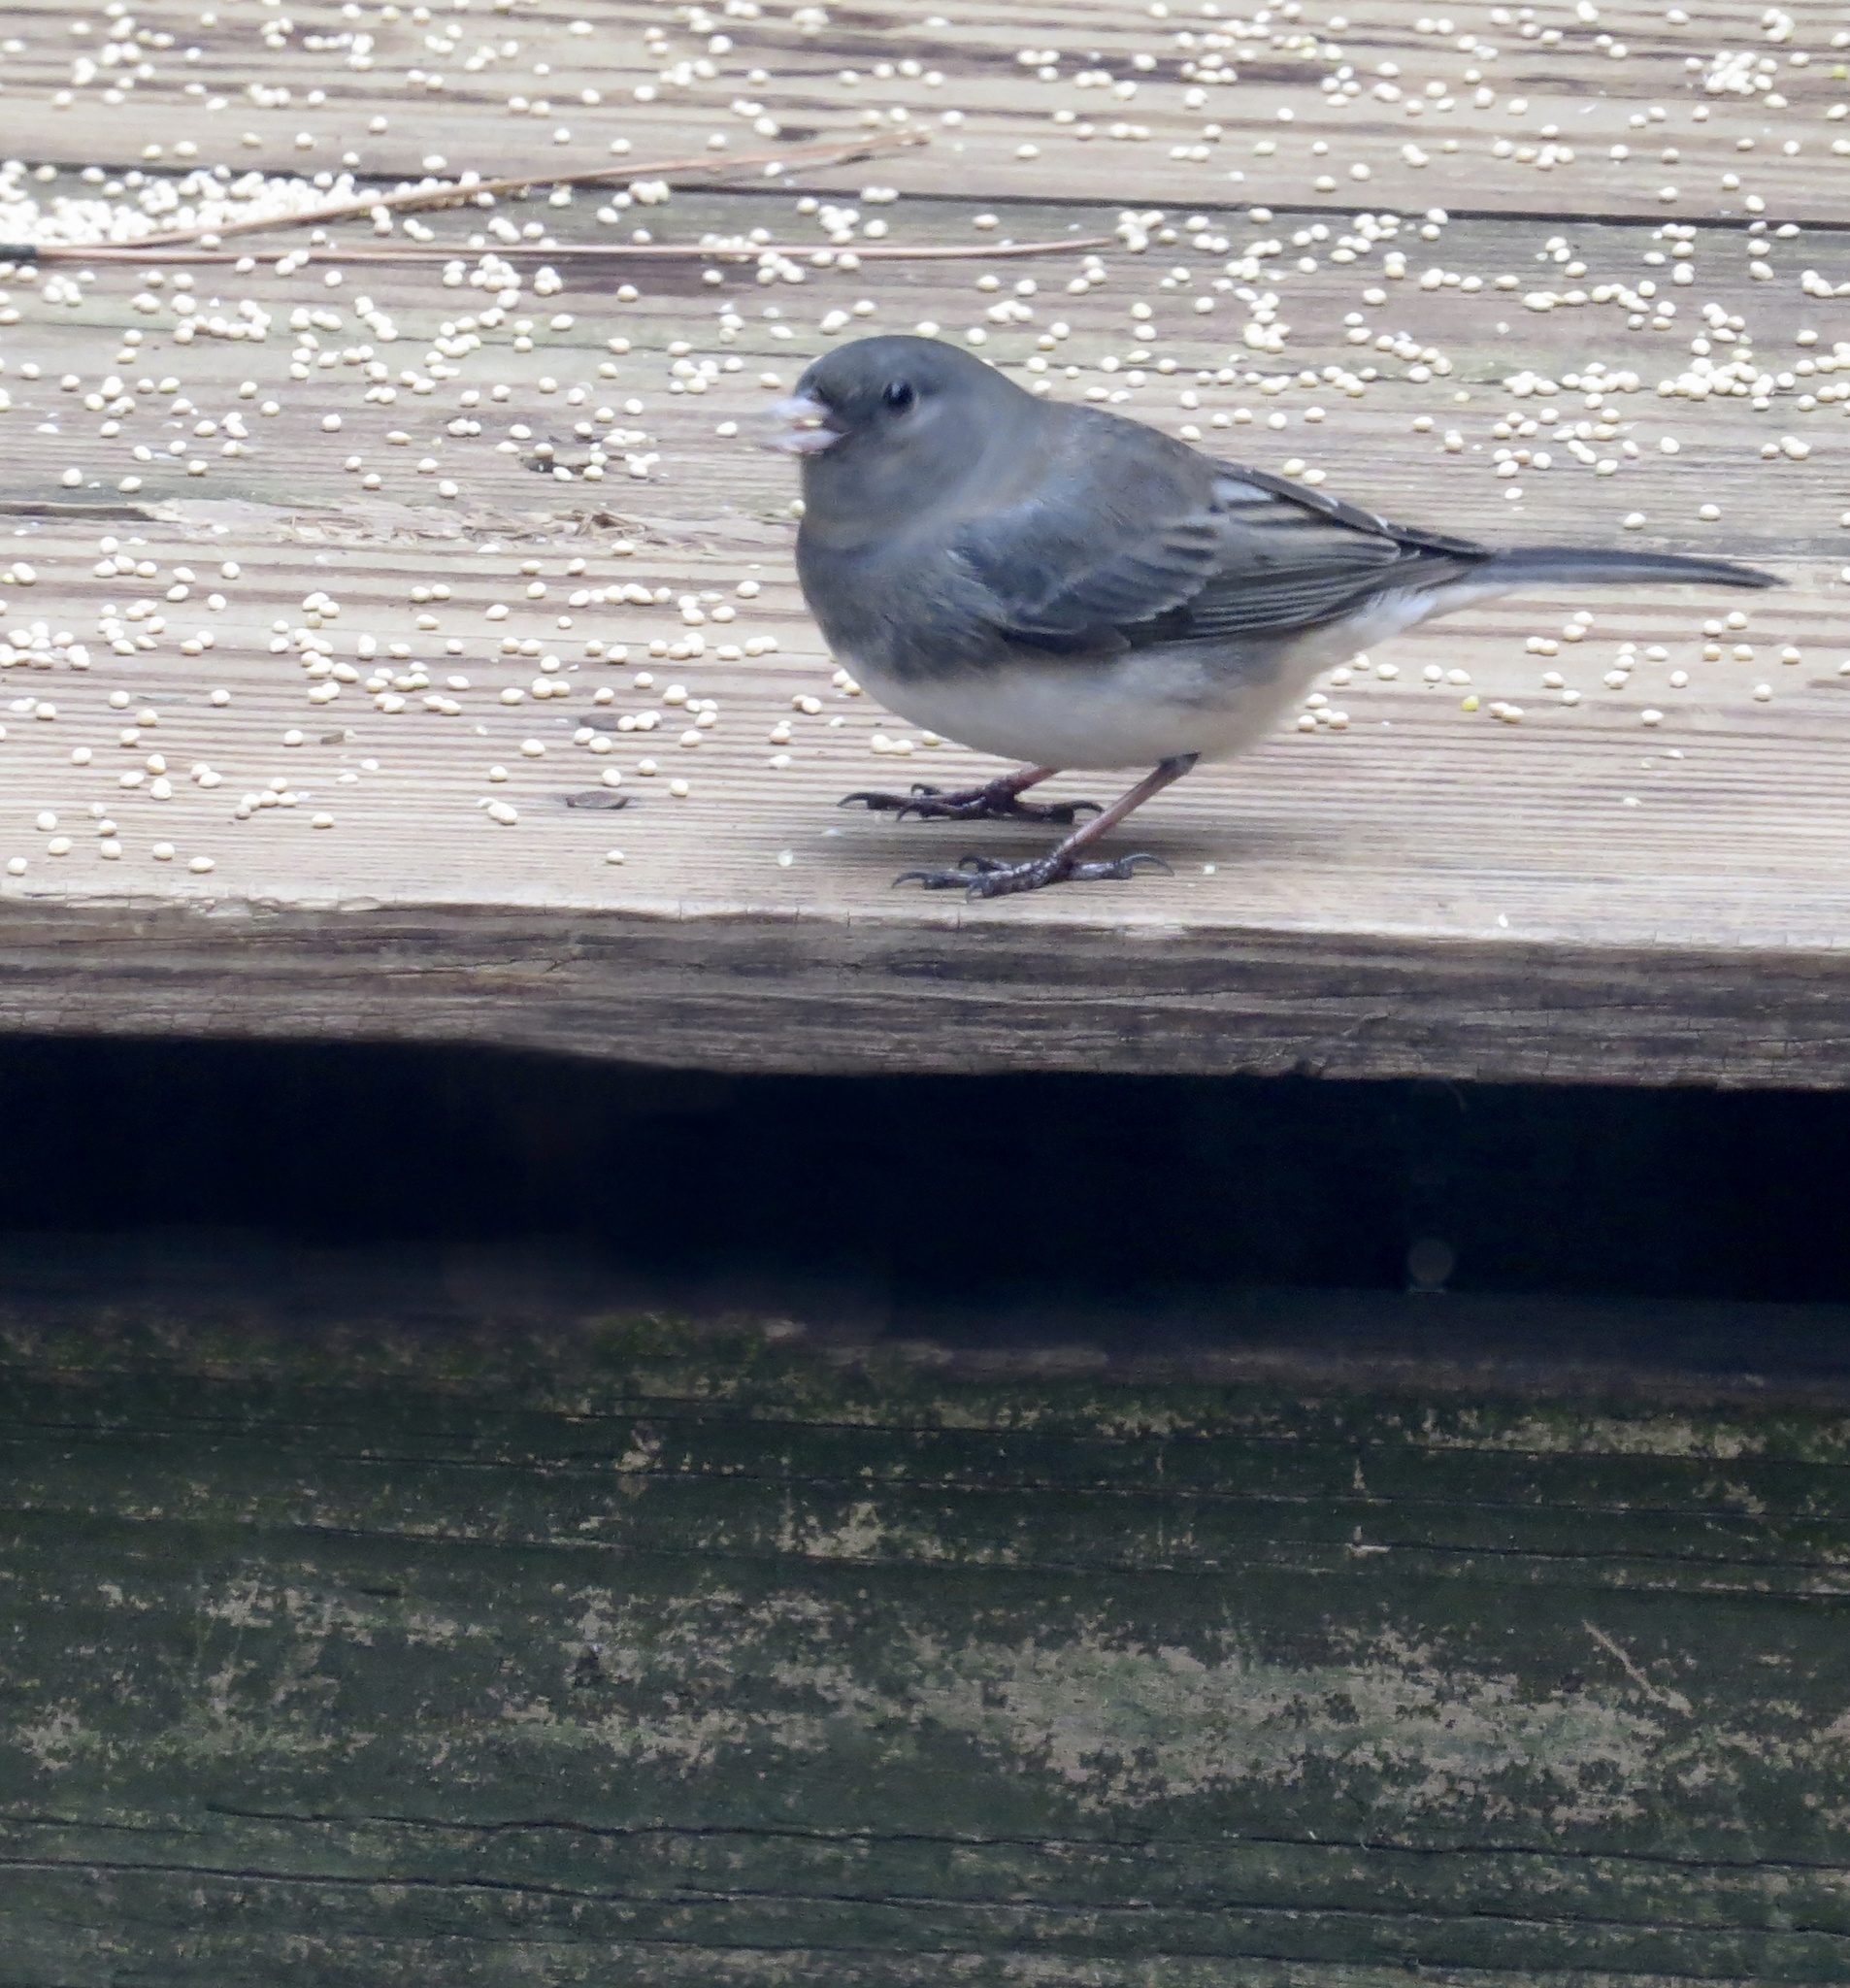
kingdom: Animalia
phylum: Chordata
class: Aves
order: Passeriformes
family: Passerellidae
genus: Junco
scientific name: Junco hyemalis
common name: Dark-eyed junco
